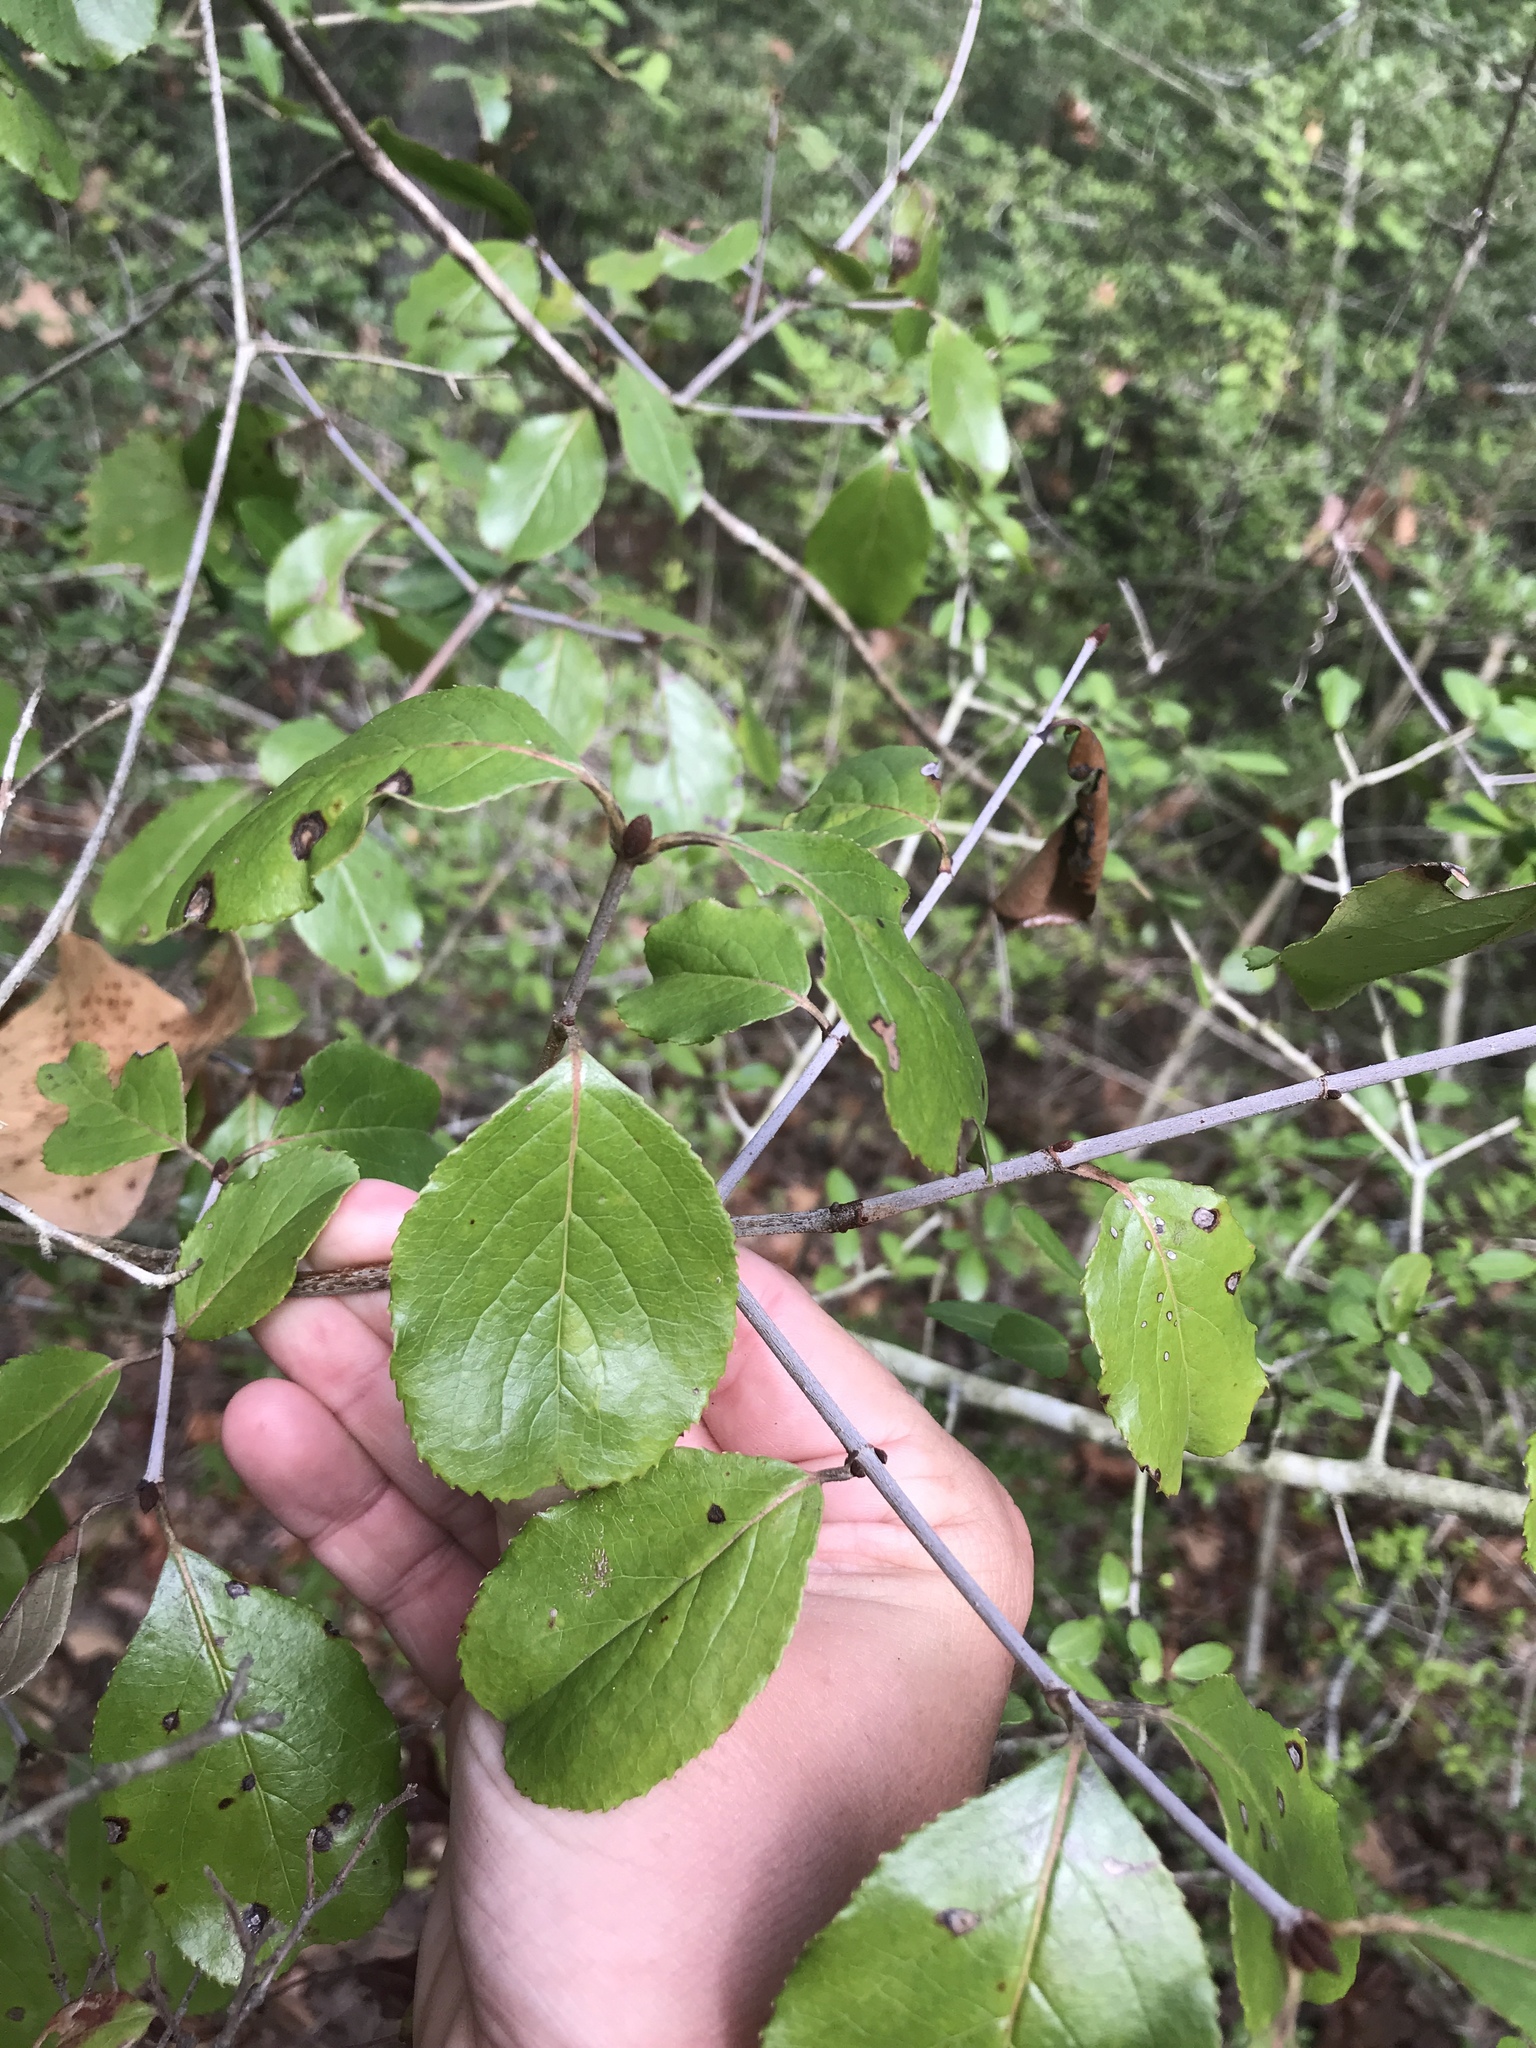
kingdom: Plantae
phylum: Tracheophyta
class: Magnoliopsida
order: Dipsacales
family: Viburnaceae
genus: Viburnum
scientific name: Viburnum rufidulum
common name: Blue haw
